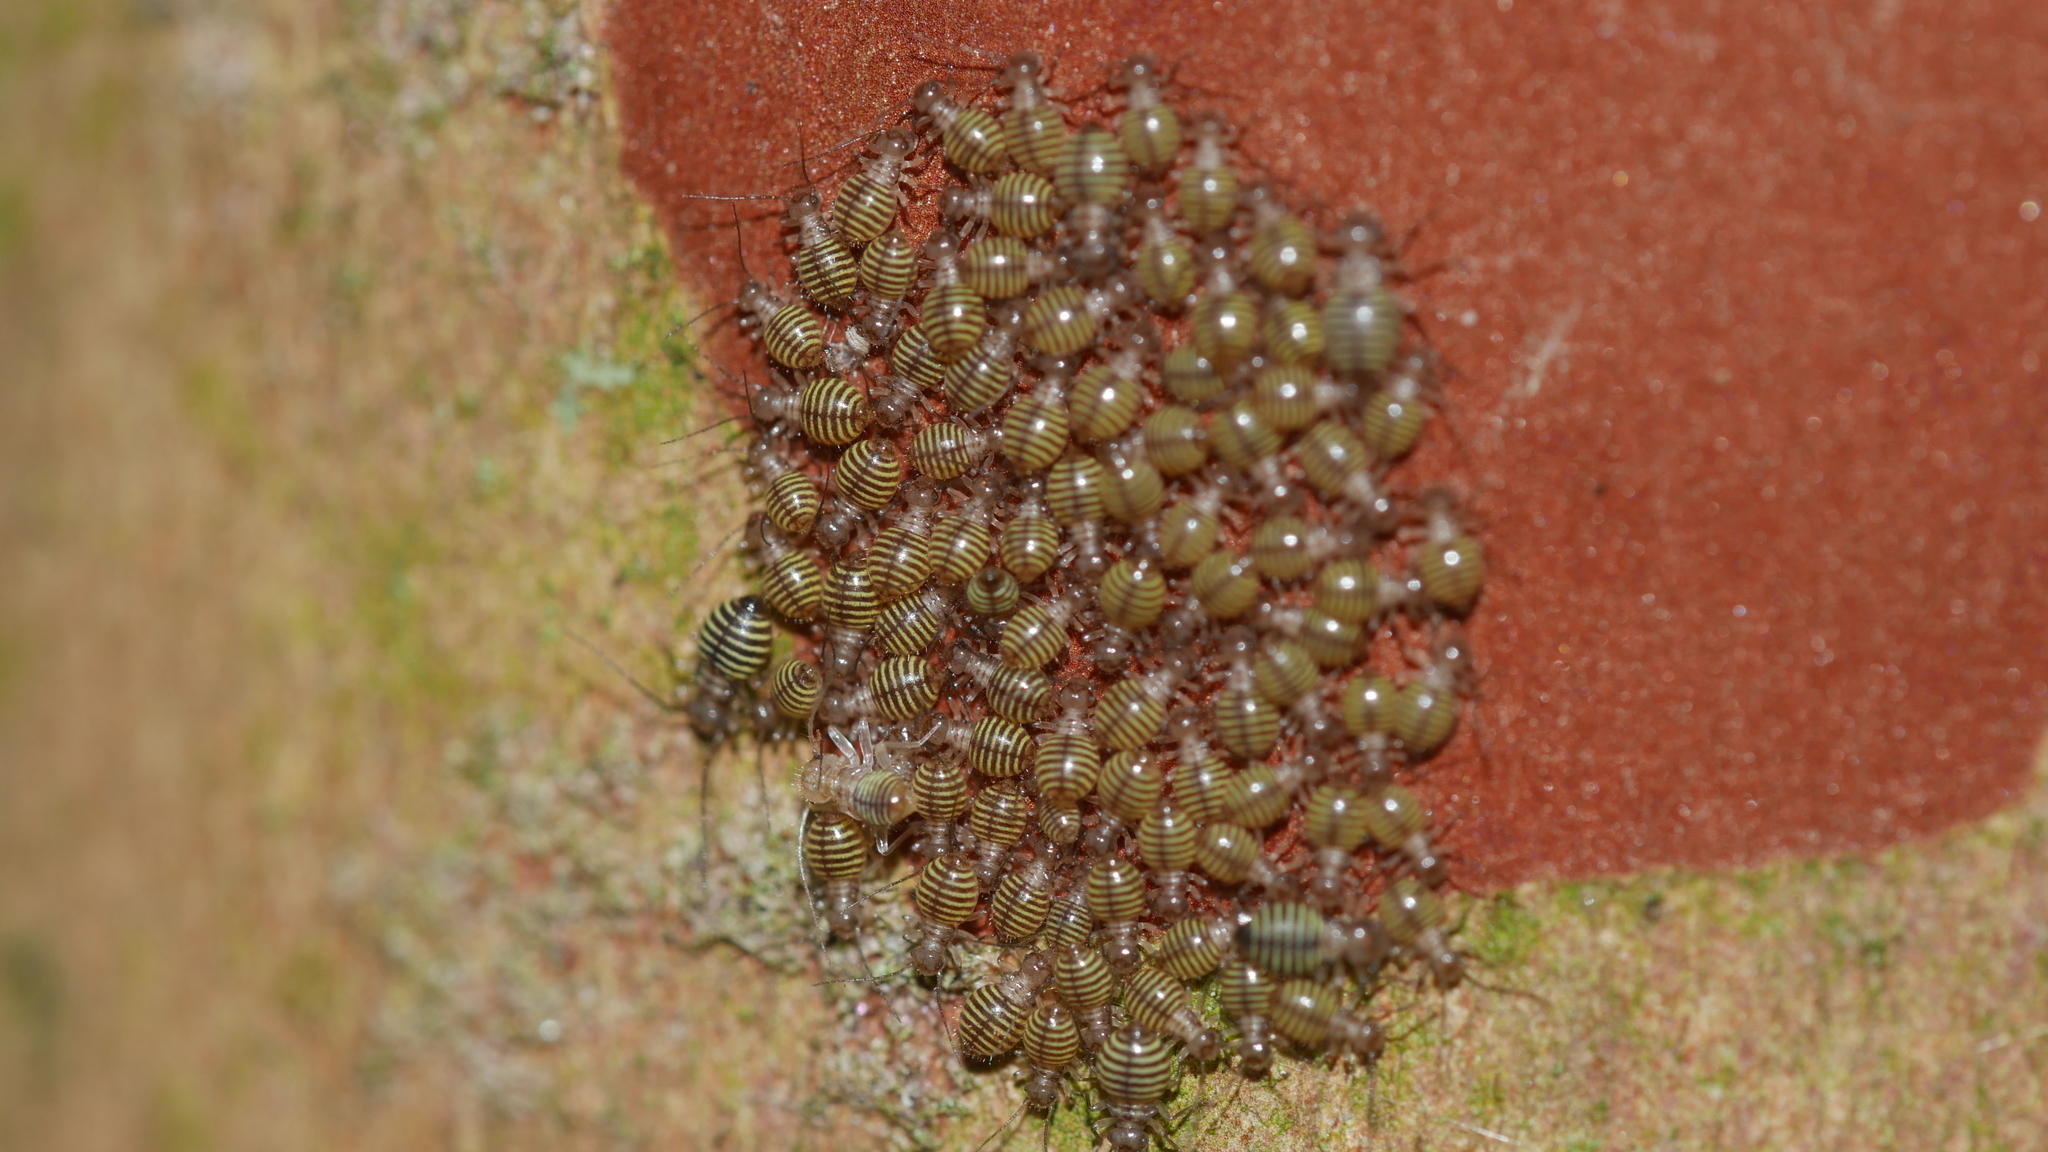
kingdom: Animalia
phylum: Arthropoda
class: Insecta
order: Psocodea
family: Psocidae
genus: Cerastipsocus
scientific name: Cerastipsocus venosus
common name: Tree cattle
